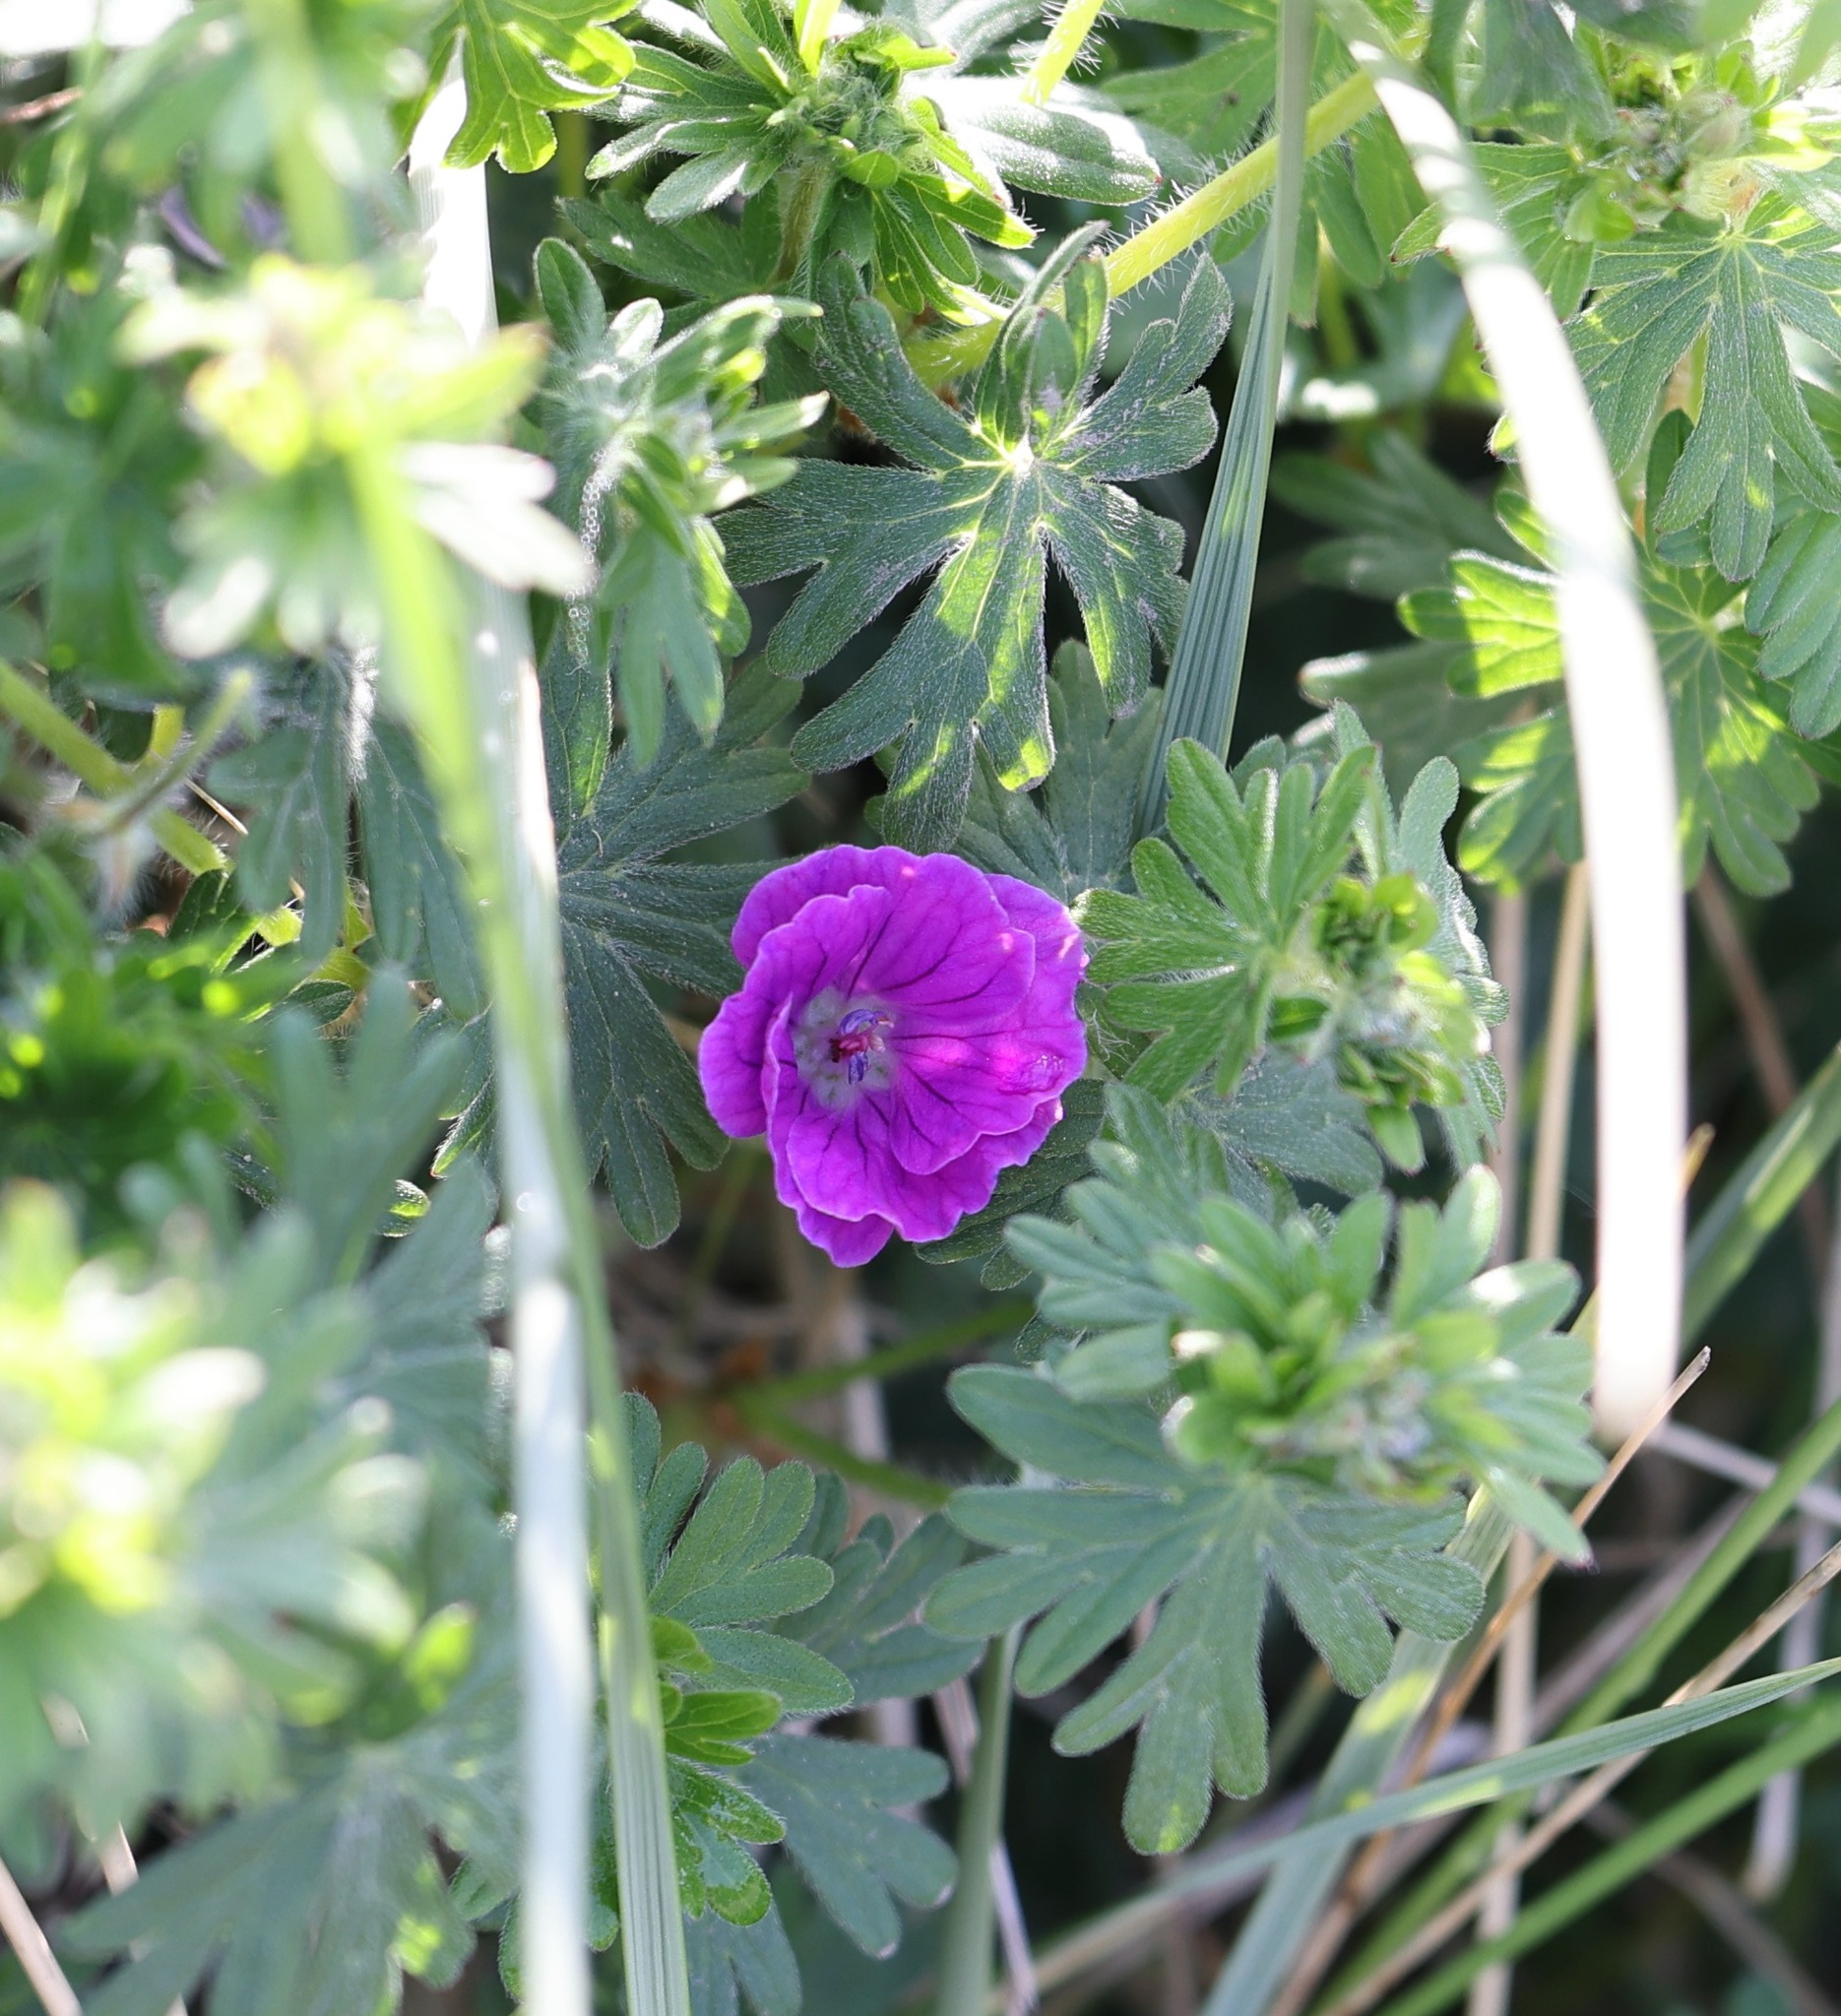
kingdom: Plantae
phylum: Tracheophyta
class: Magnoliopsida
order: Geraniales
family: Geraniaceae
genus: Geranium
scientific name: Geranium sanguineum
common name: Bloody crane's-bill
